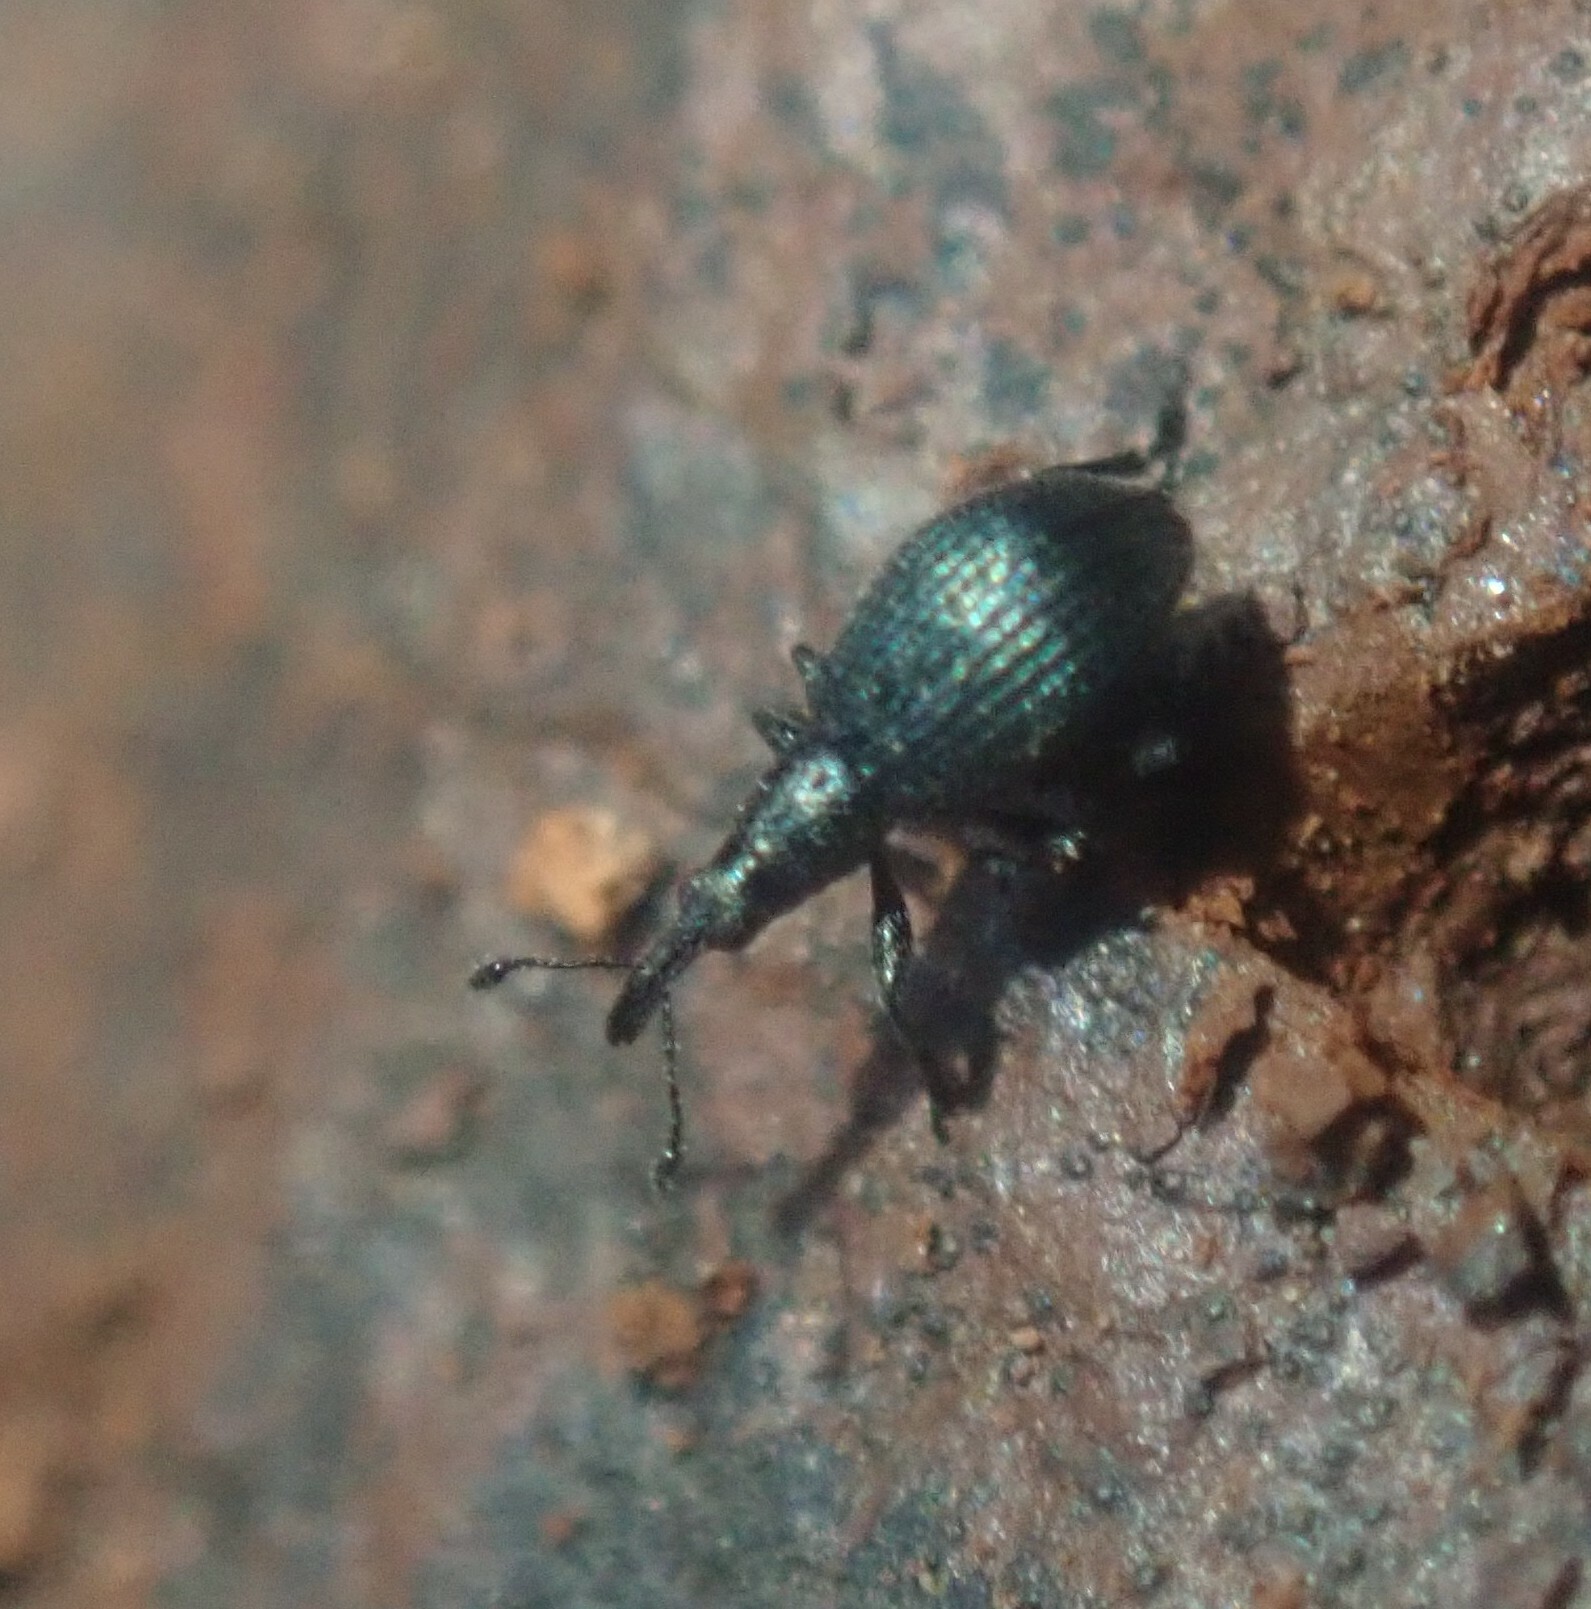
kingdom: Animalia
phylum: Arthropoda
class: Insecta
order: Coleoptera
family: Apionidae
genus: Ischnopterapion
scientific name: Ischnopterapion virens
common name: White clover weevil
